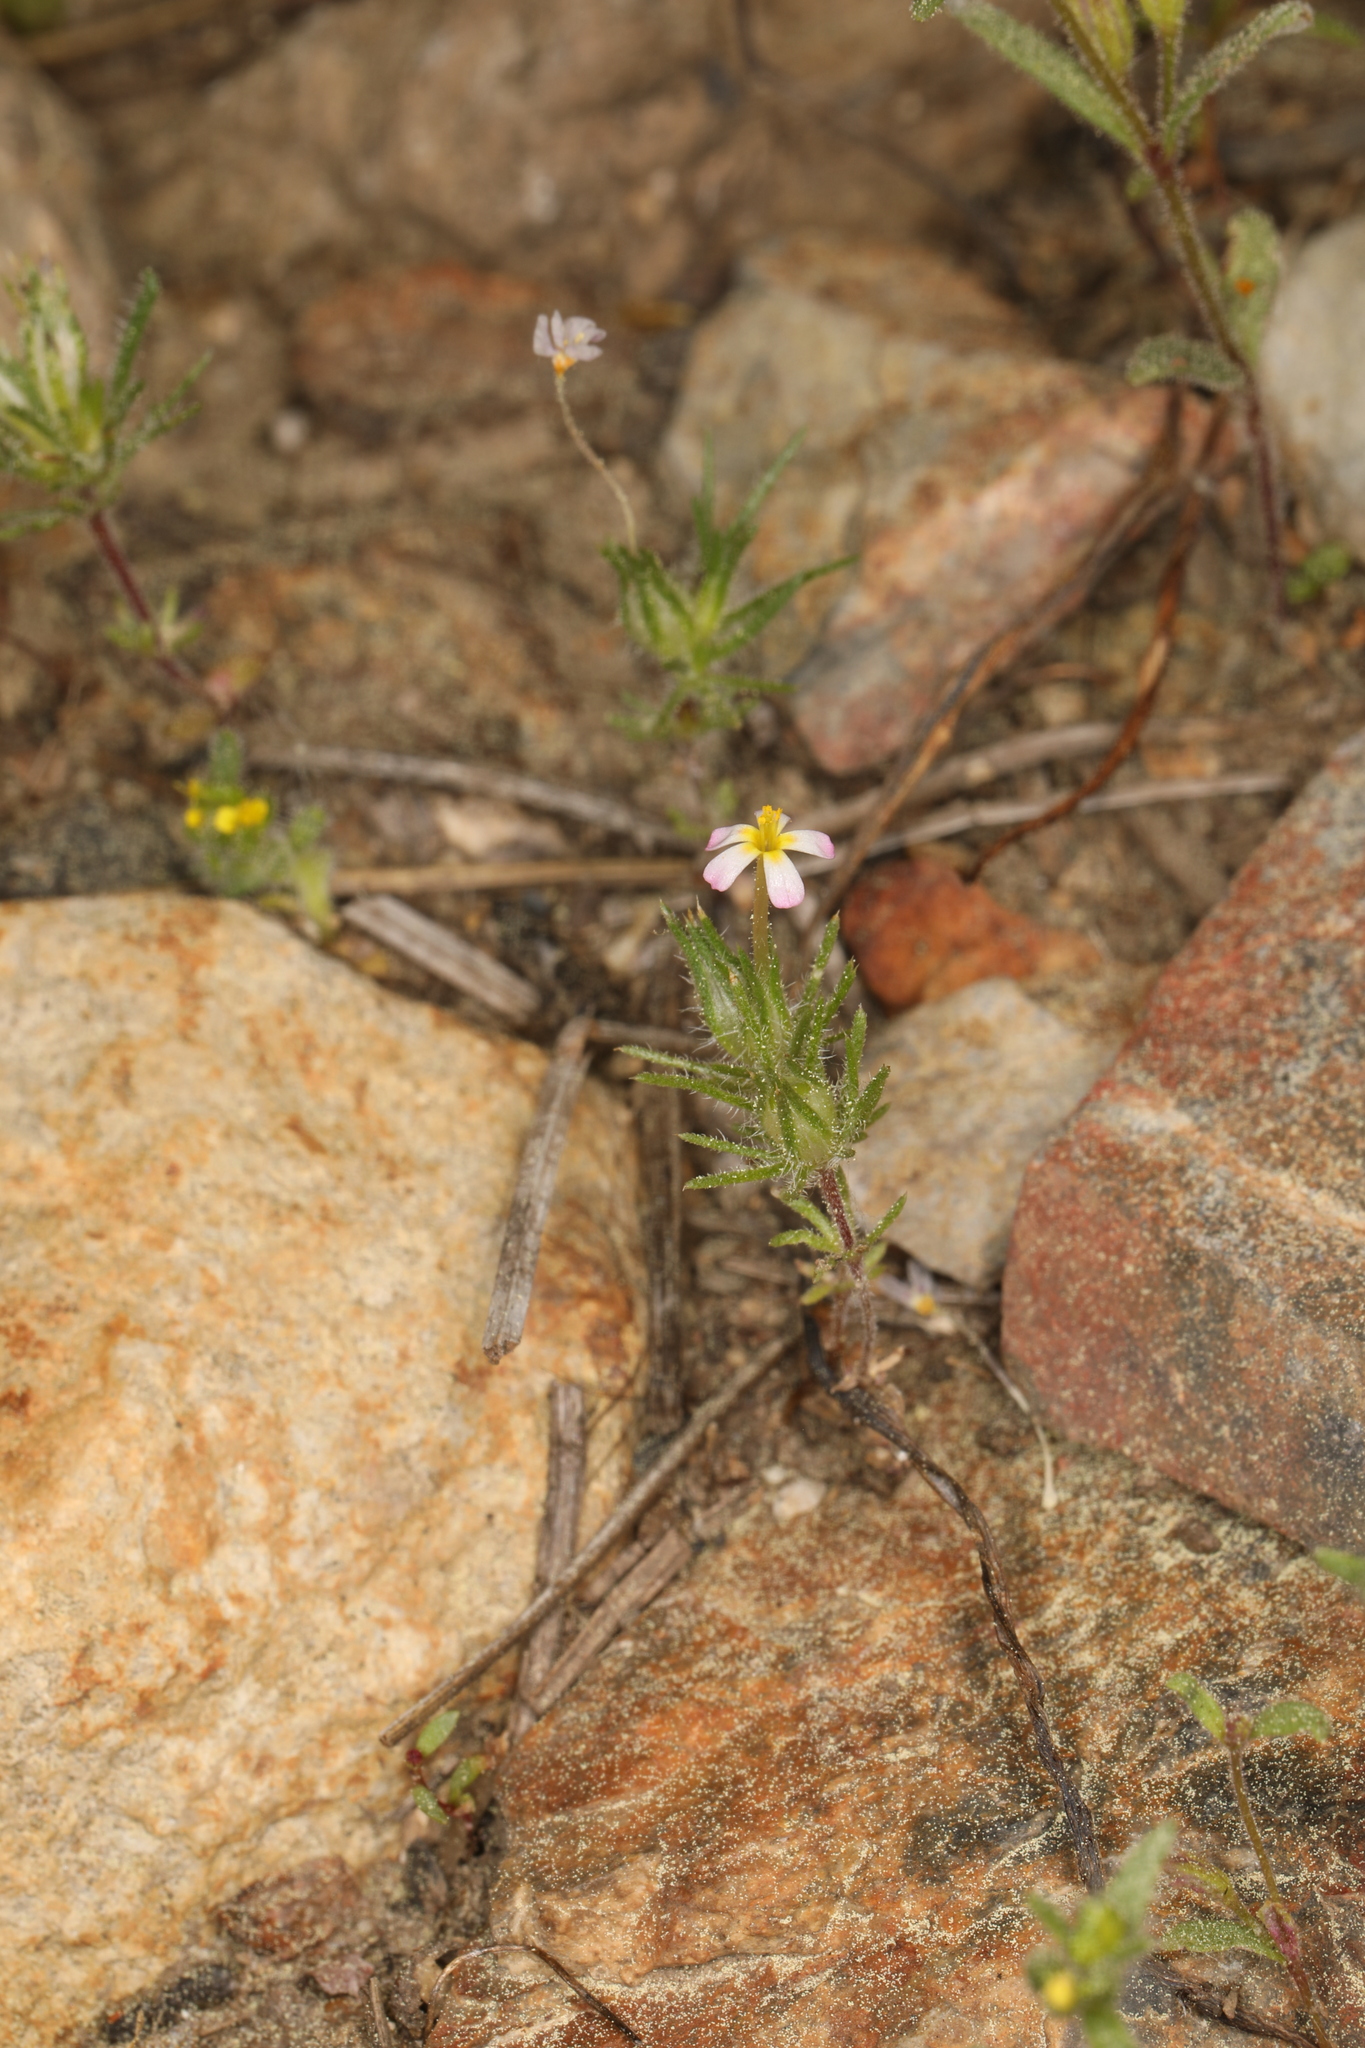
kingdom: Plantae
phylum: Tracheophyta
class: Magnoliopsida
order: Ericales
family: Polemoniaceae
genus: Leptosiphon
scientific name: Leptosiphon ciliatus
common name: Whiskerbrush
